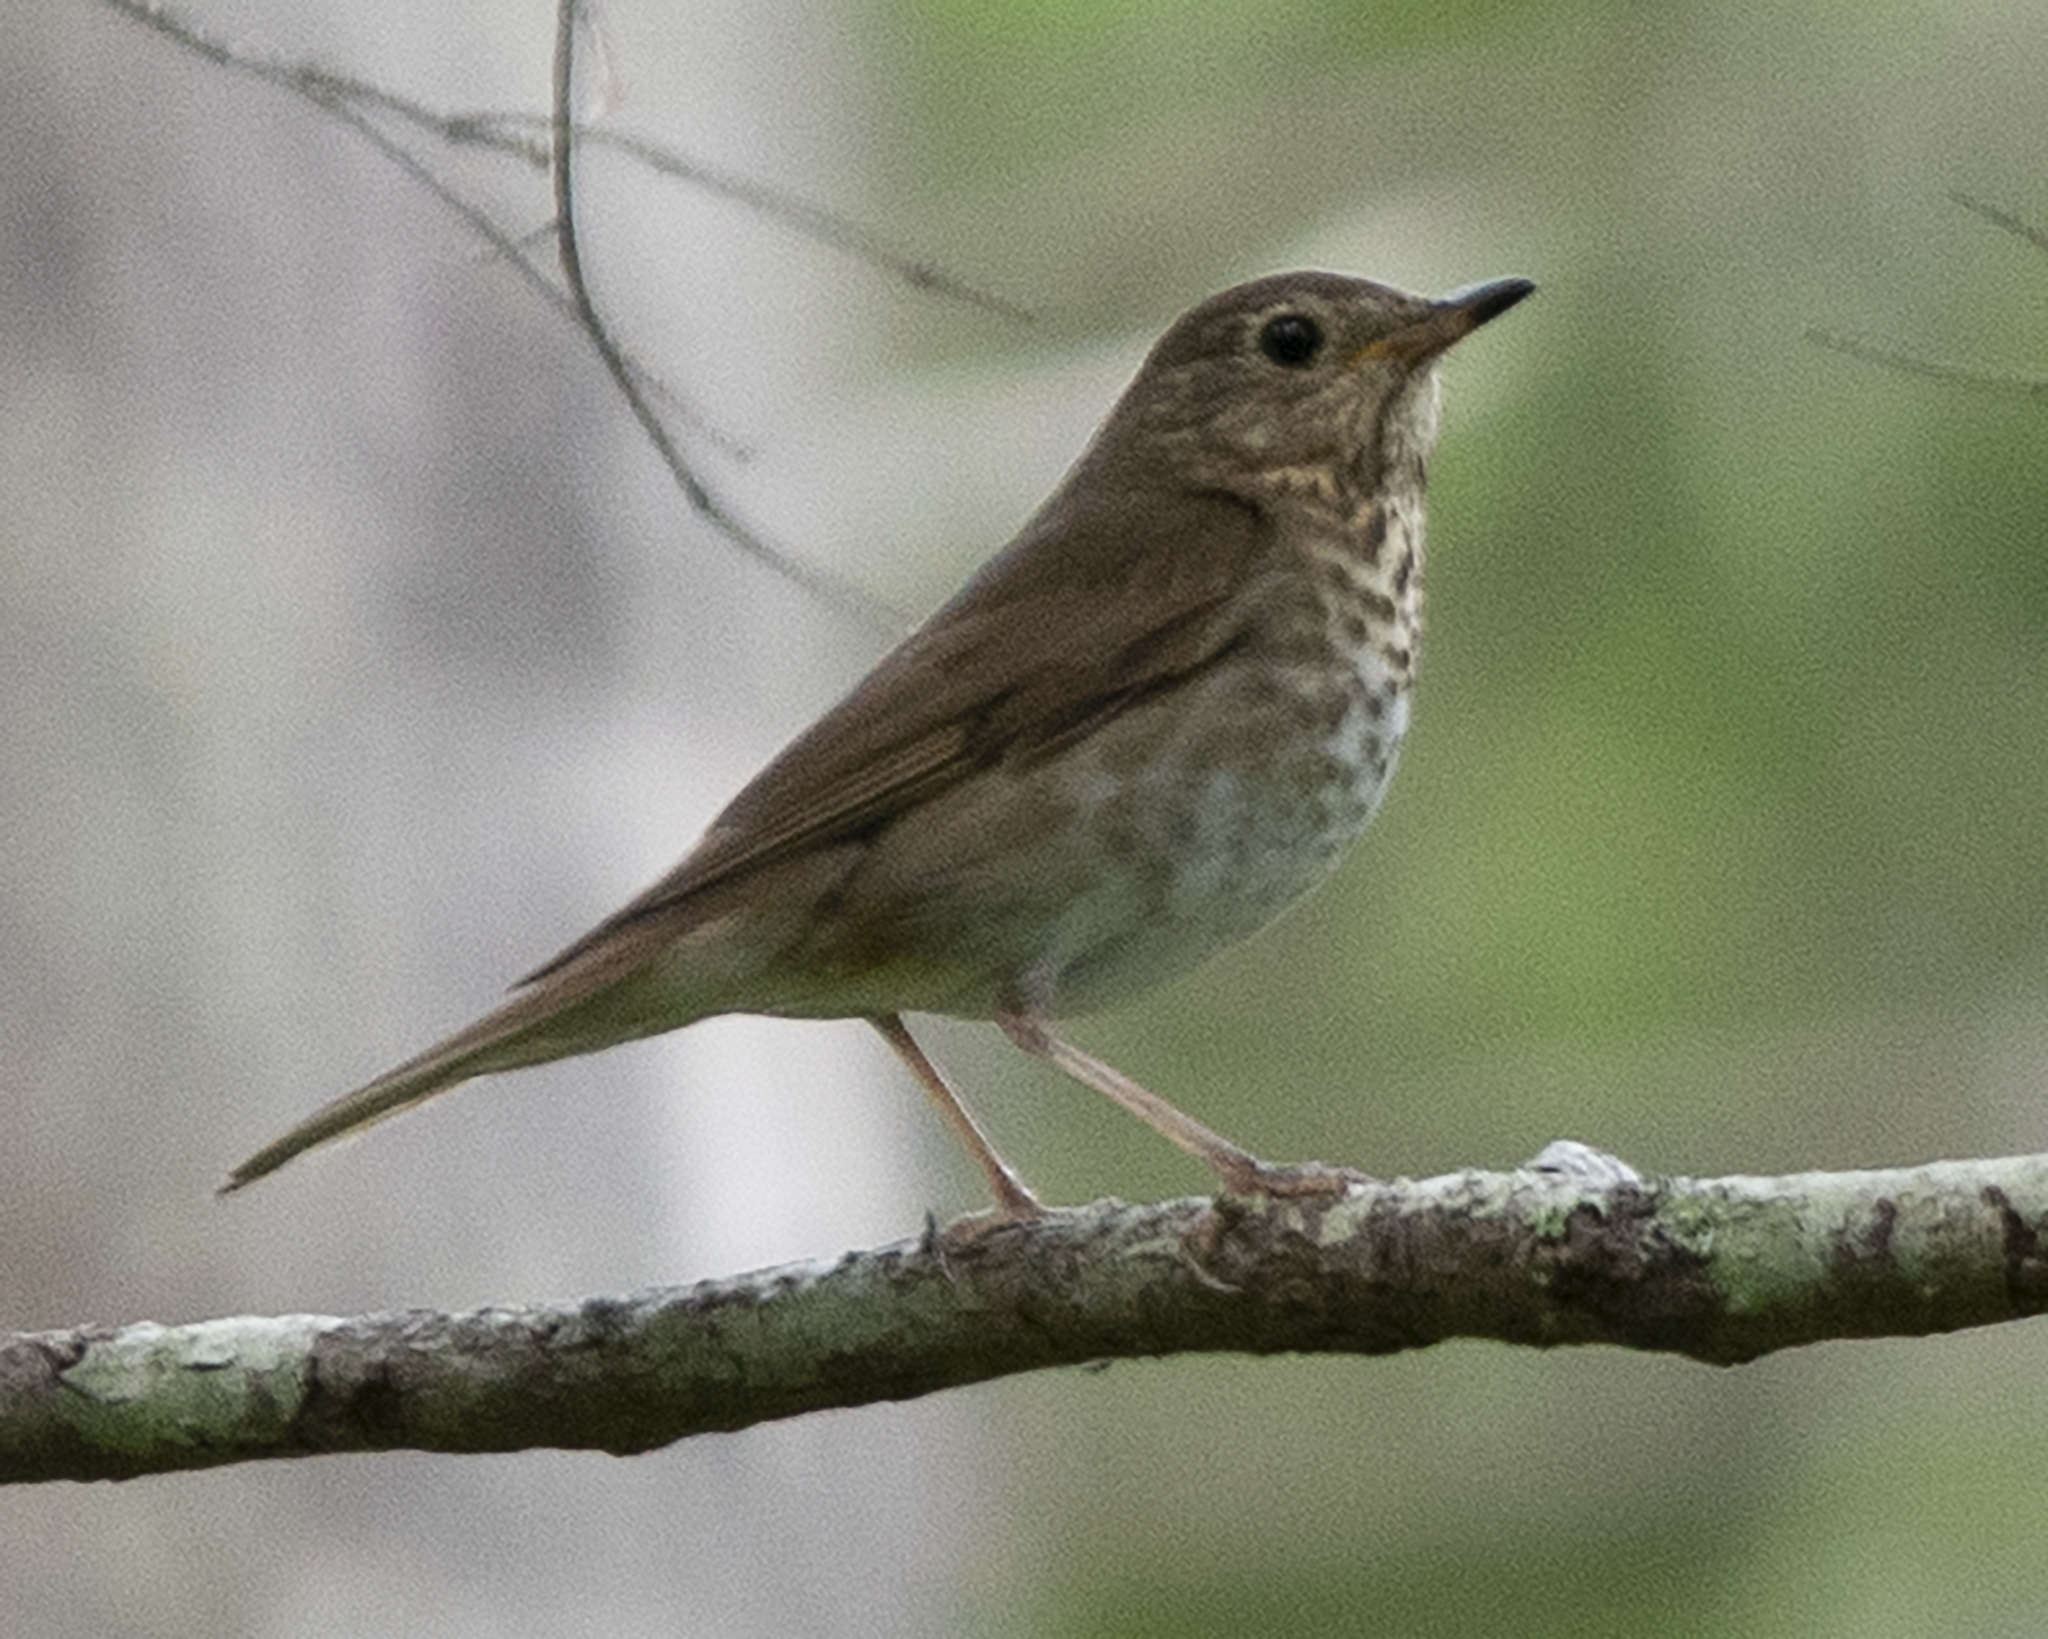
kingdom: Animalia
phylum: Chordata
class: Aves
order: Passeriformes
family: Turdidae
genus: Catharus
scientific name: Catharus ustulatus
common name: Swainson's thrush
